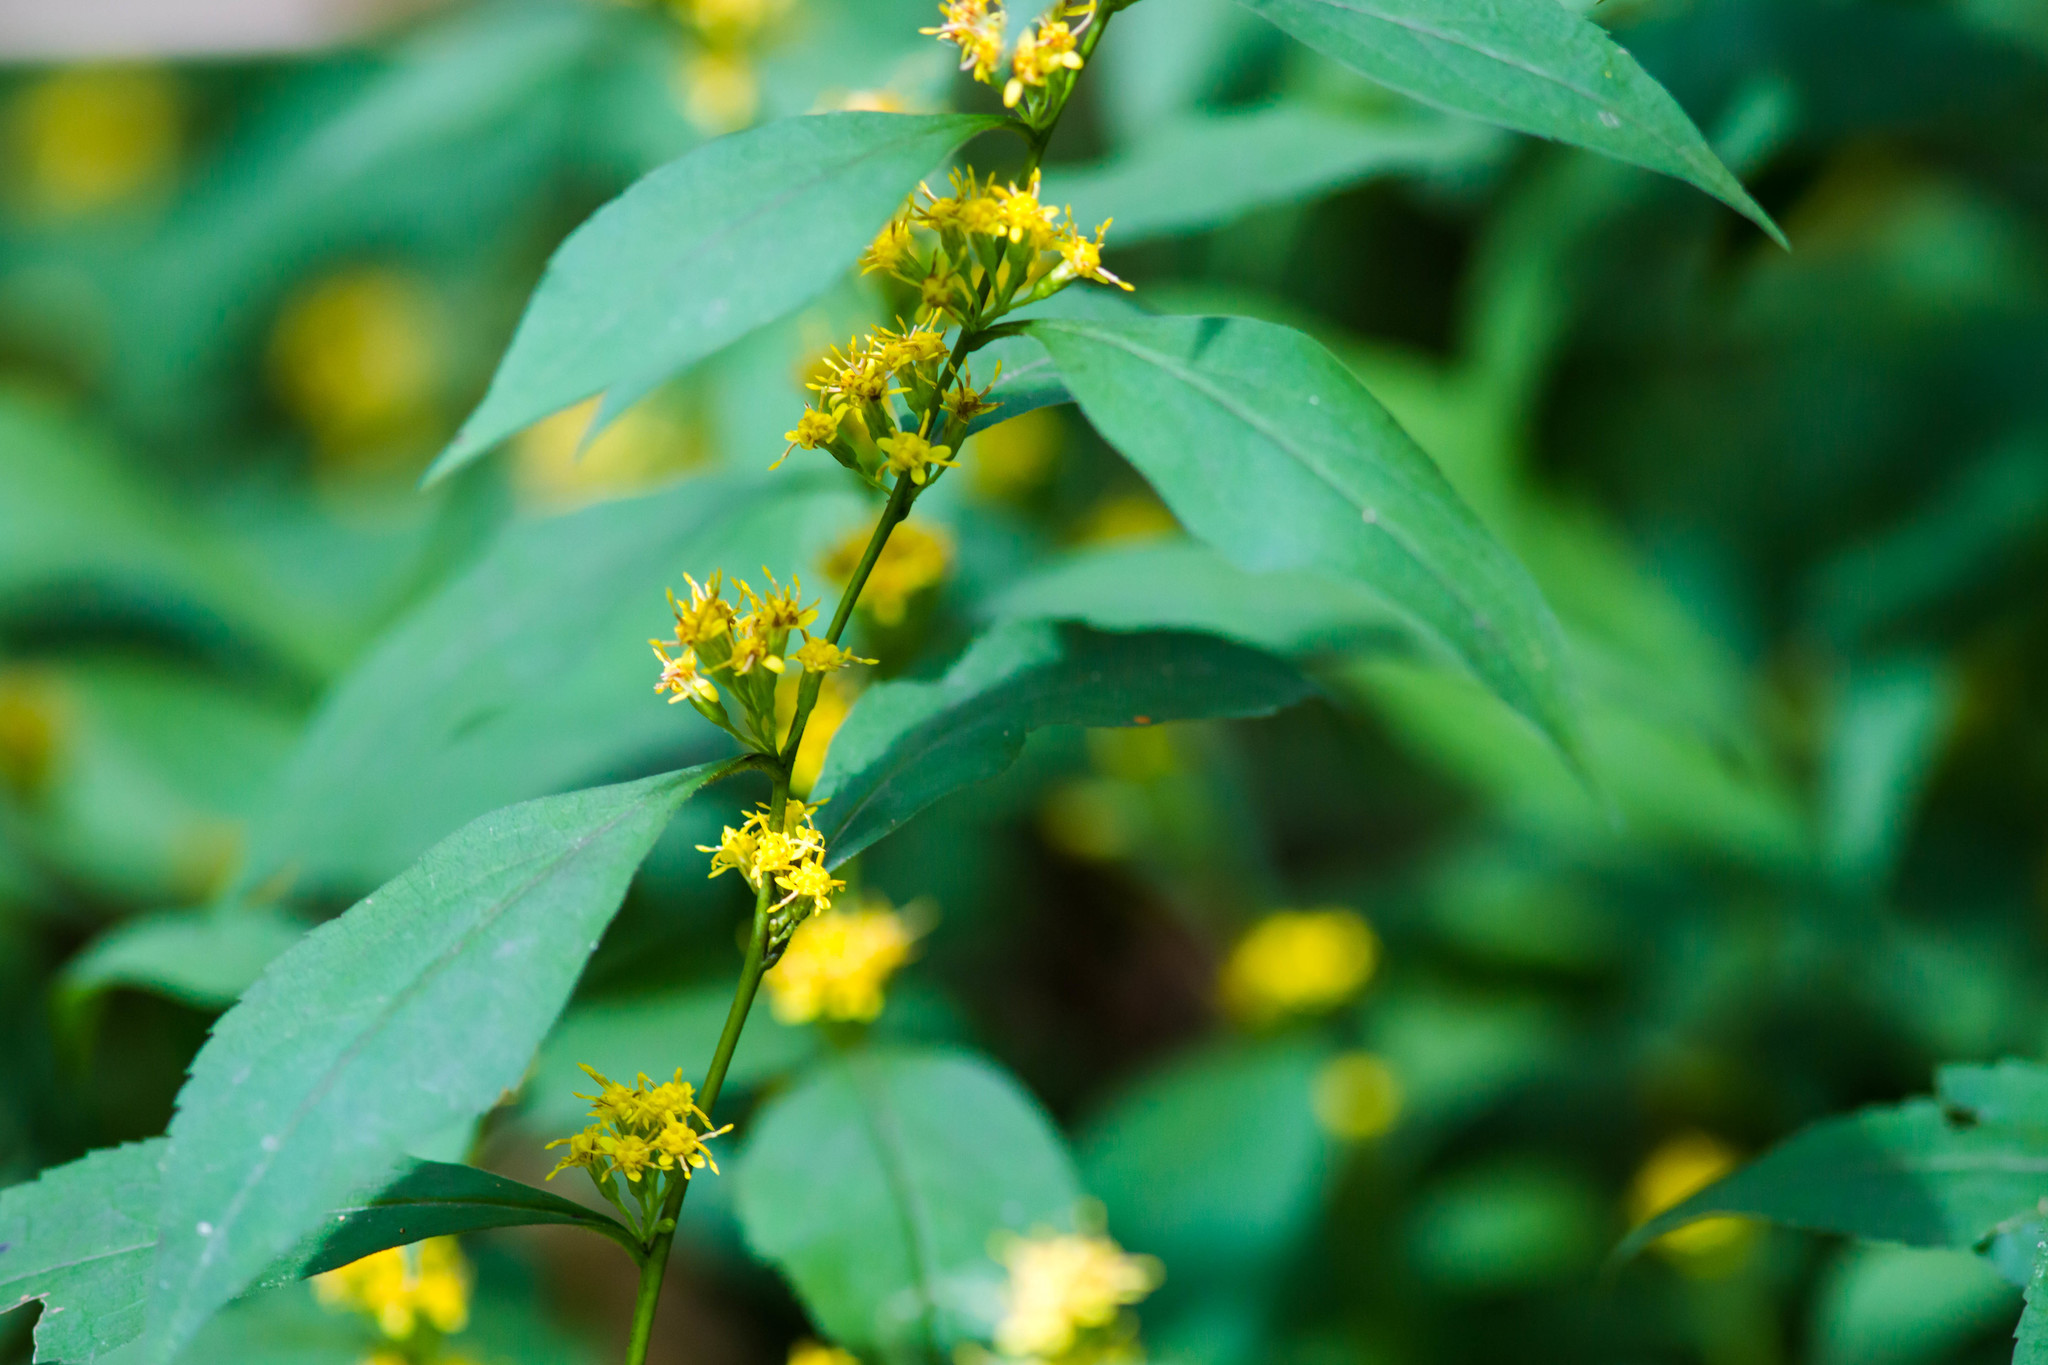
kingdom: Plantae
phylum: Tracheophyta
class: Magnoliopsida
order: Asterales
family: Asteraceae
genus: Solidago
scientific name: Solidago caesia
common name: Woodland goldenrod
